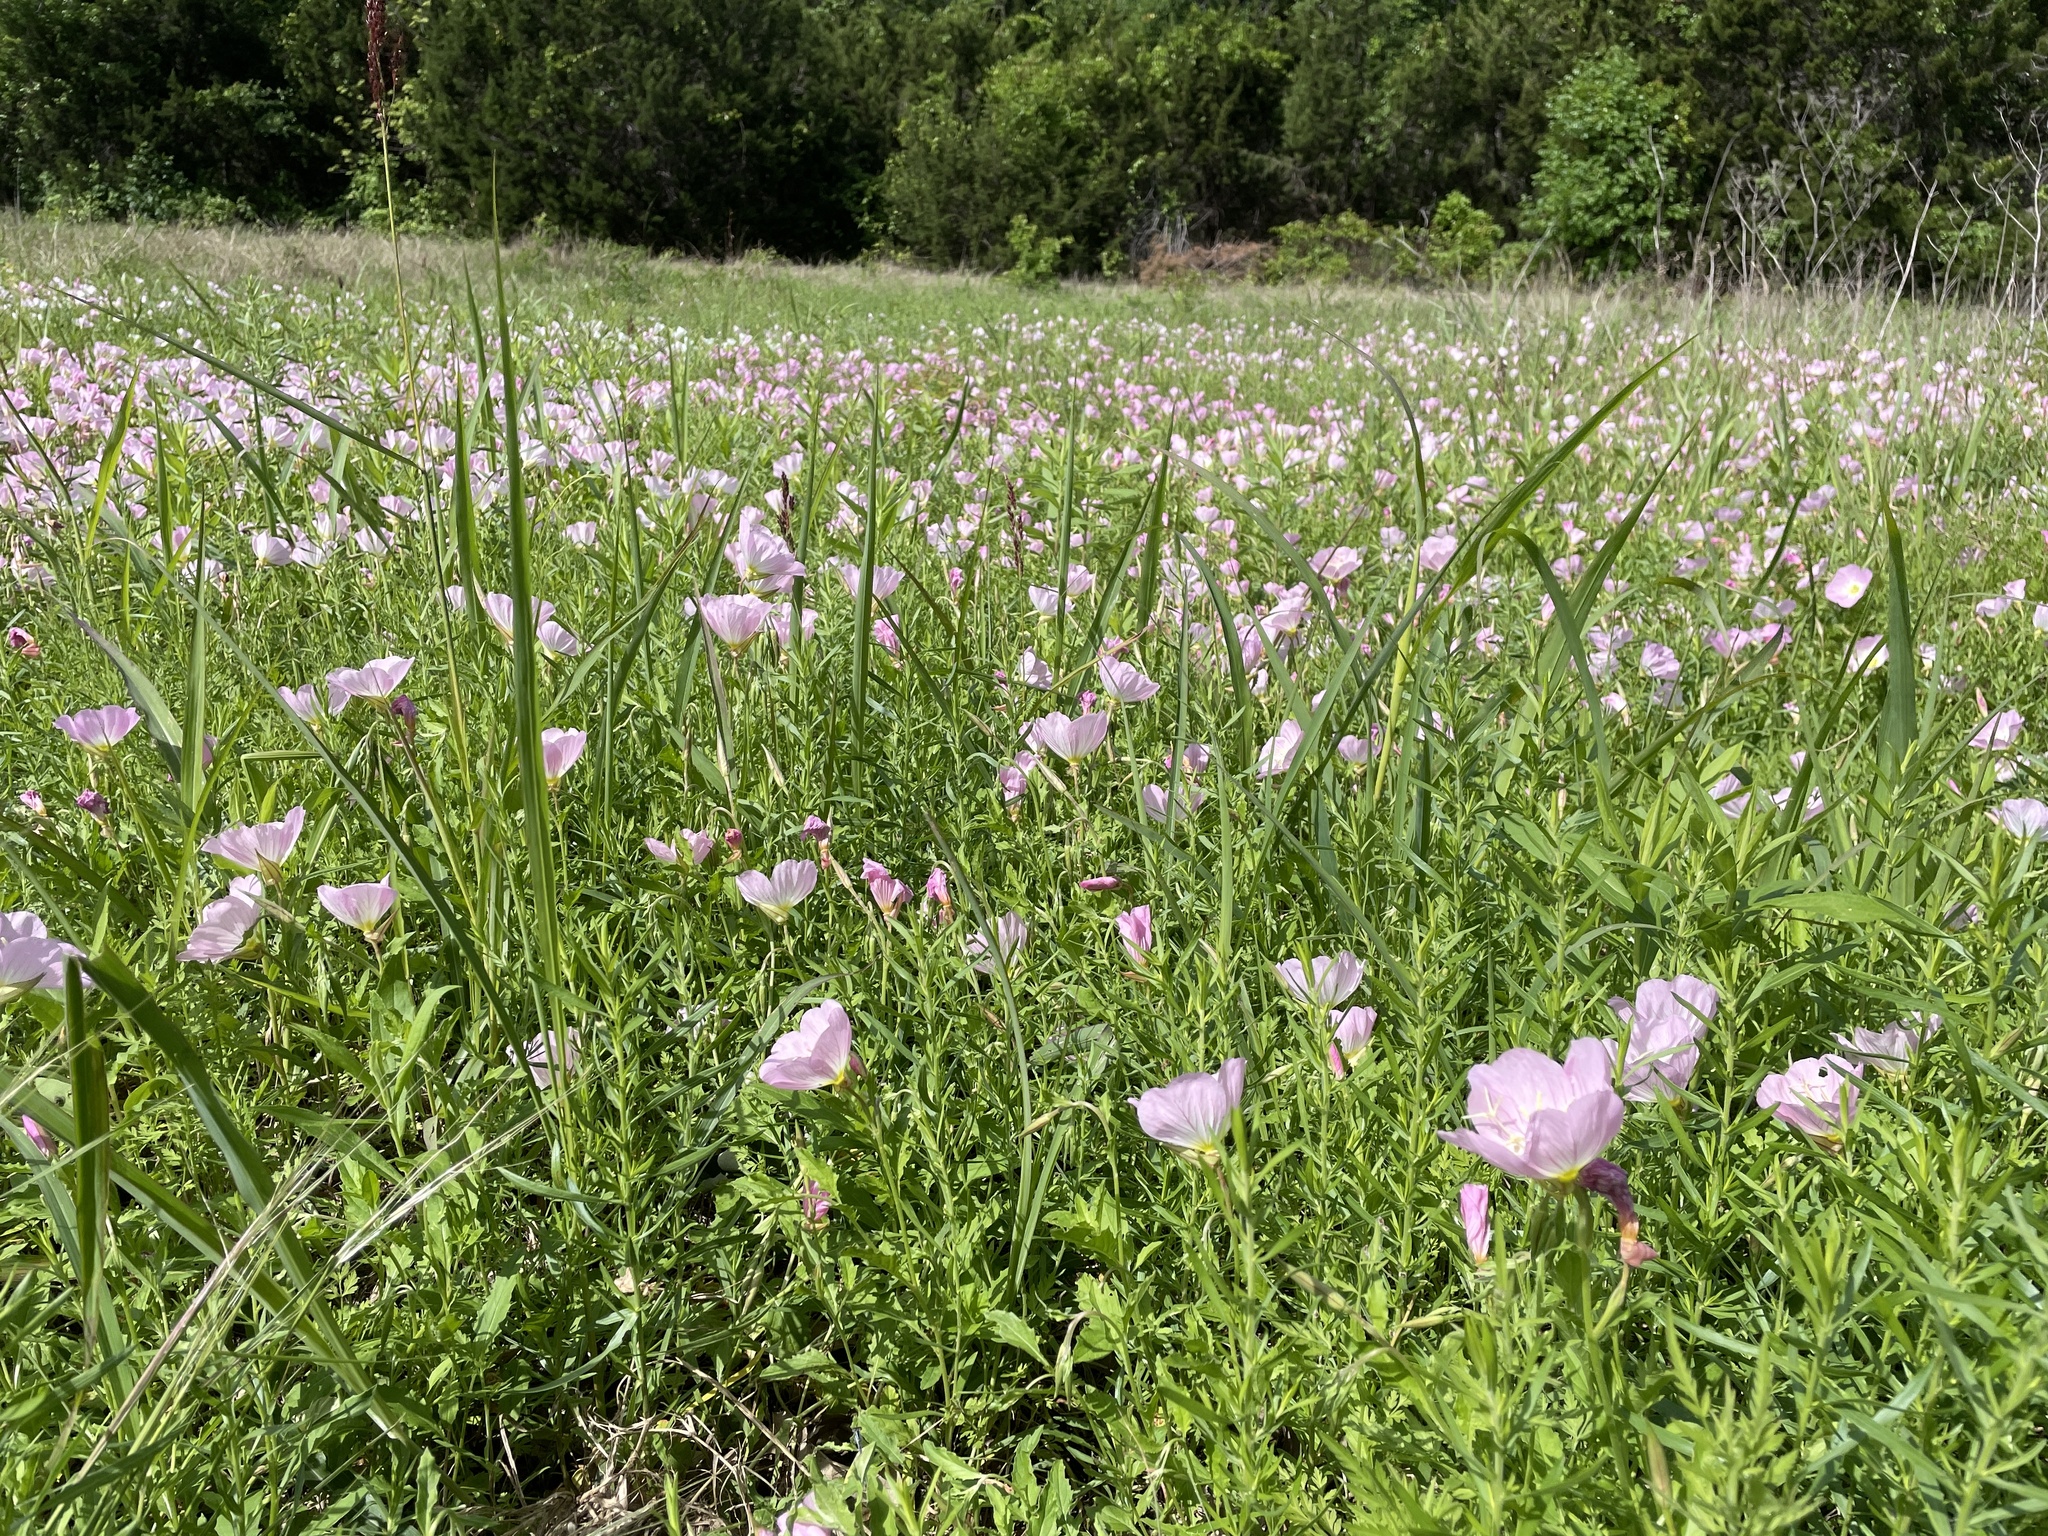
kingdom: Plantae
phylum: Tracheophyta
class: Magnoliopsida
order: Myrtales
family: Onagraceae
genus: Oenothera
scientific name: Oenothera speciosa
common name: White evening-primrose
